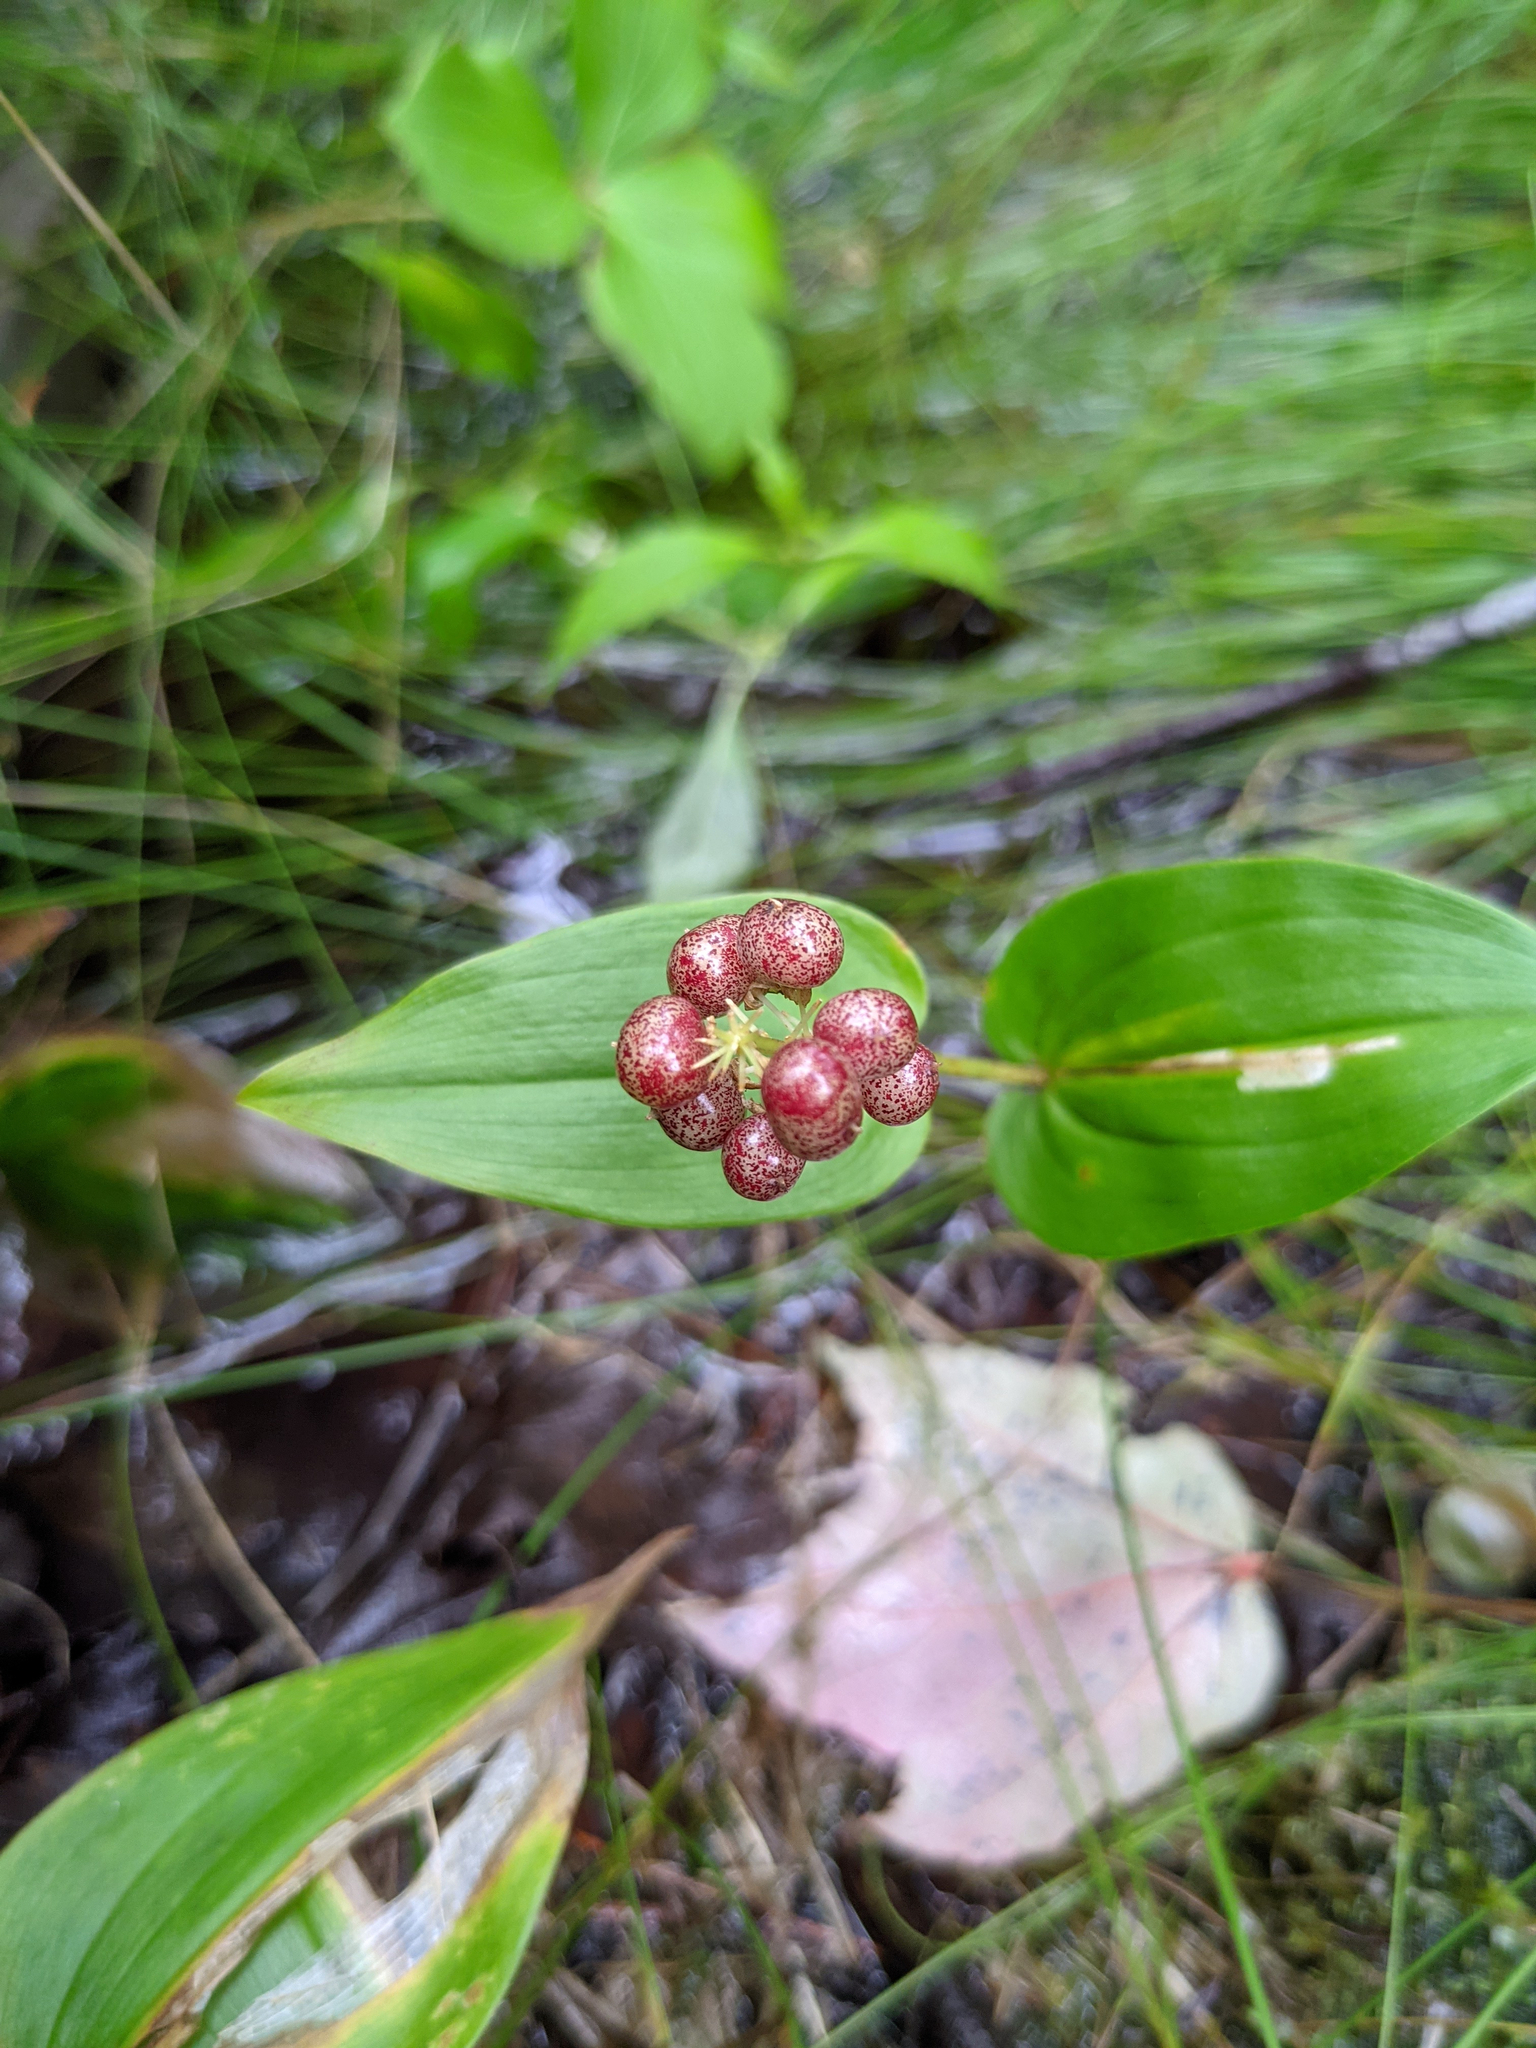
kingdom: Plantae
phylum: Tracheophyta
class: Liliopsida
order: Asparagales
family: Asparagaceae
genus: Maianthemum
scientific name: Maianthemum canadense
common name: False lily-of-the-valley
